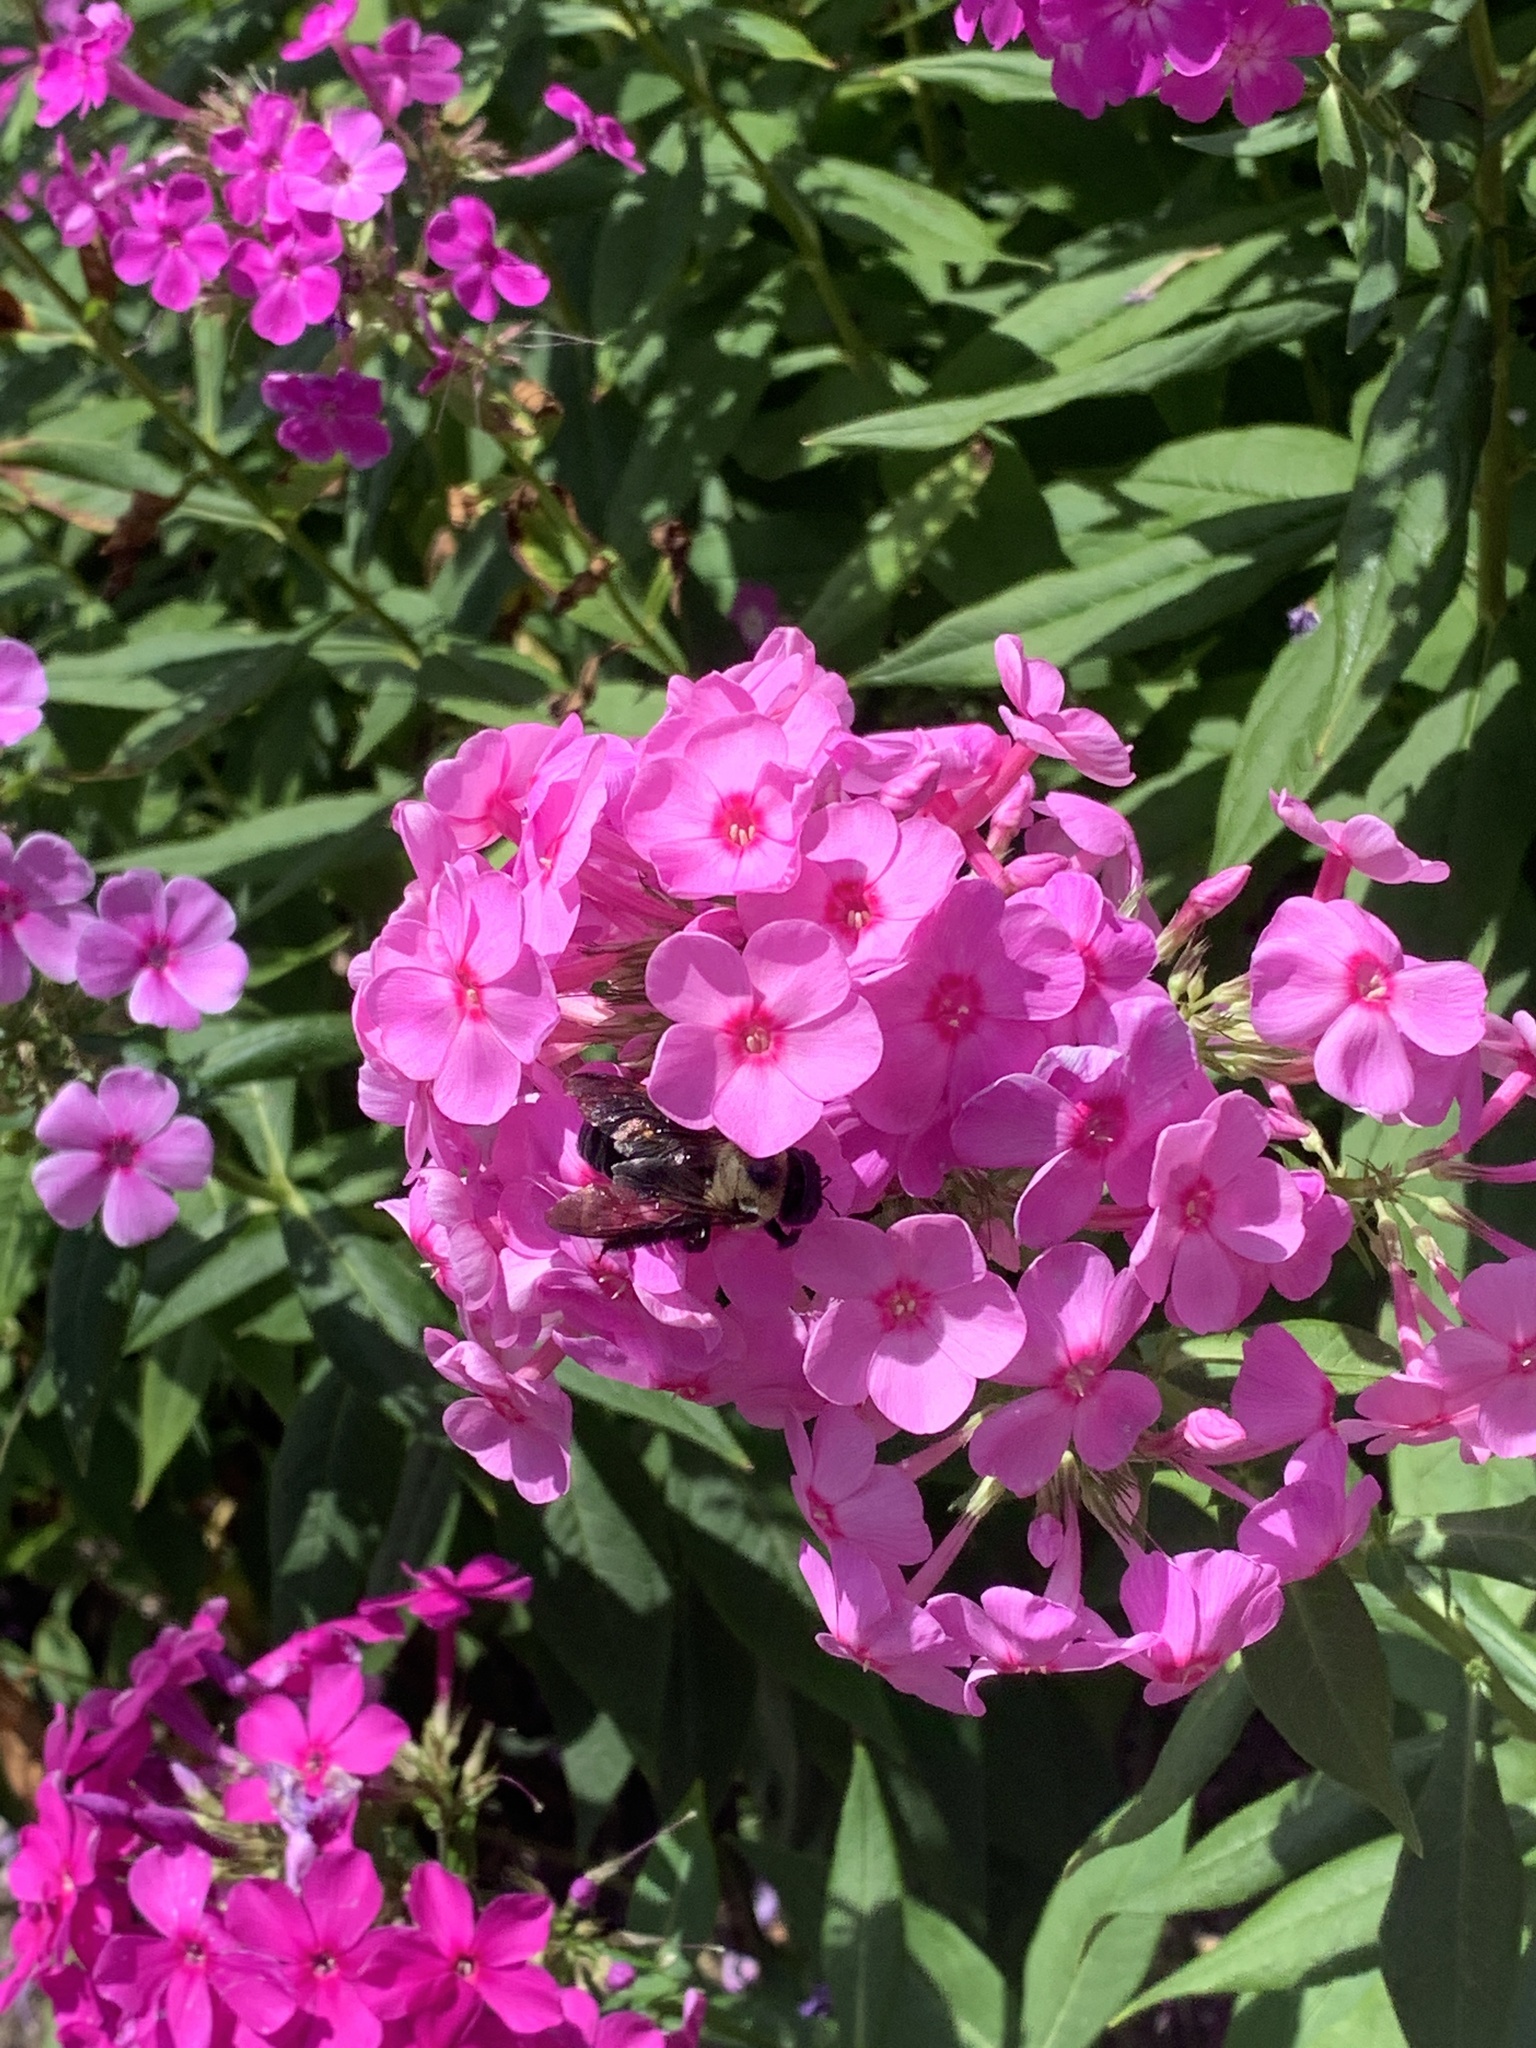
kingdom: Animalia
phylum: Arthropoda
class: Insecta
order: Hymenoptera
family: Apidae
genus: Xylocopa
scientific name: Xylocopa virginica
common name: Carpenter bee
